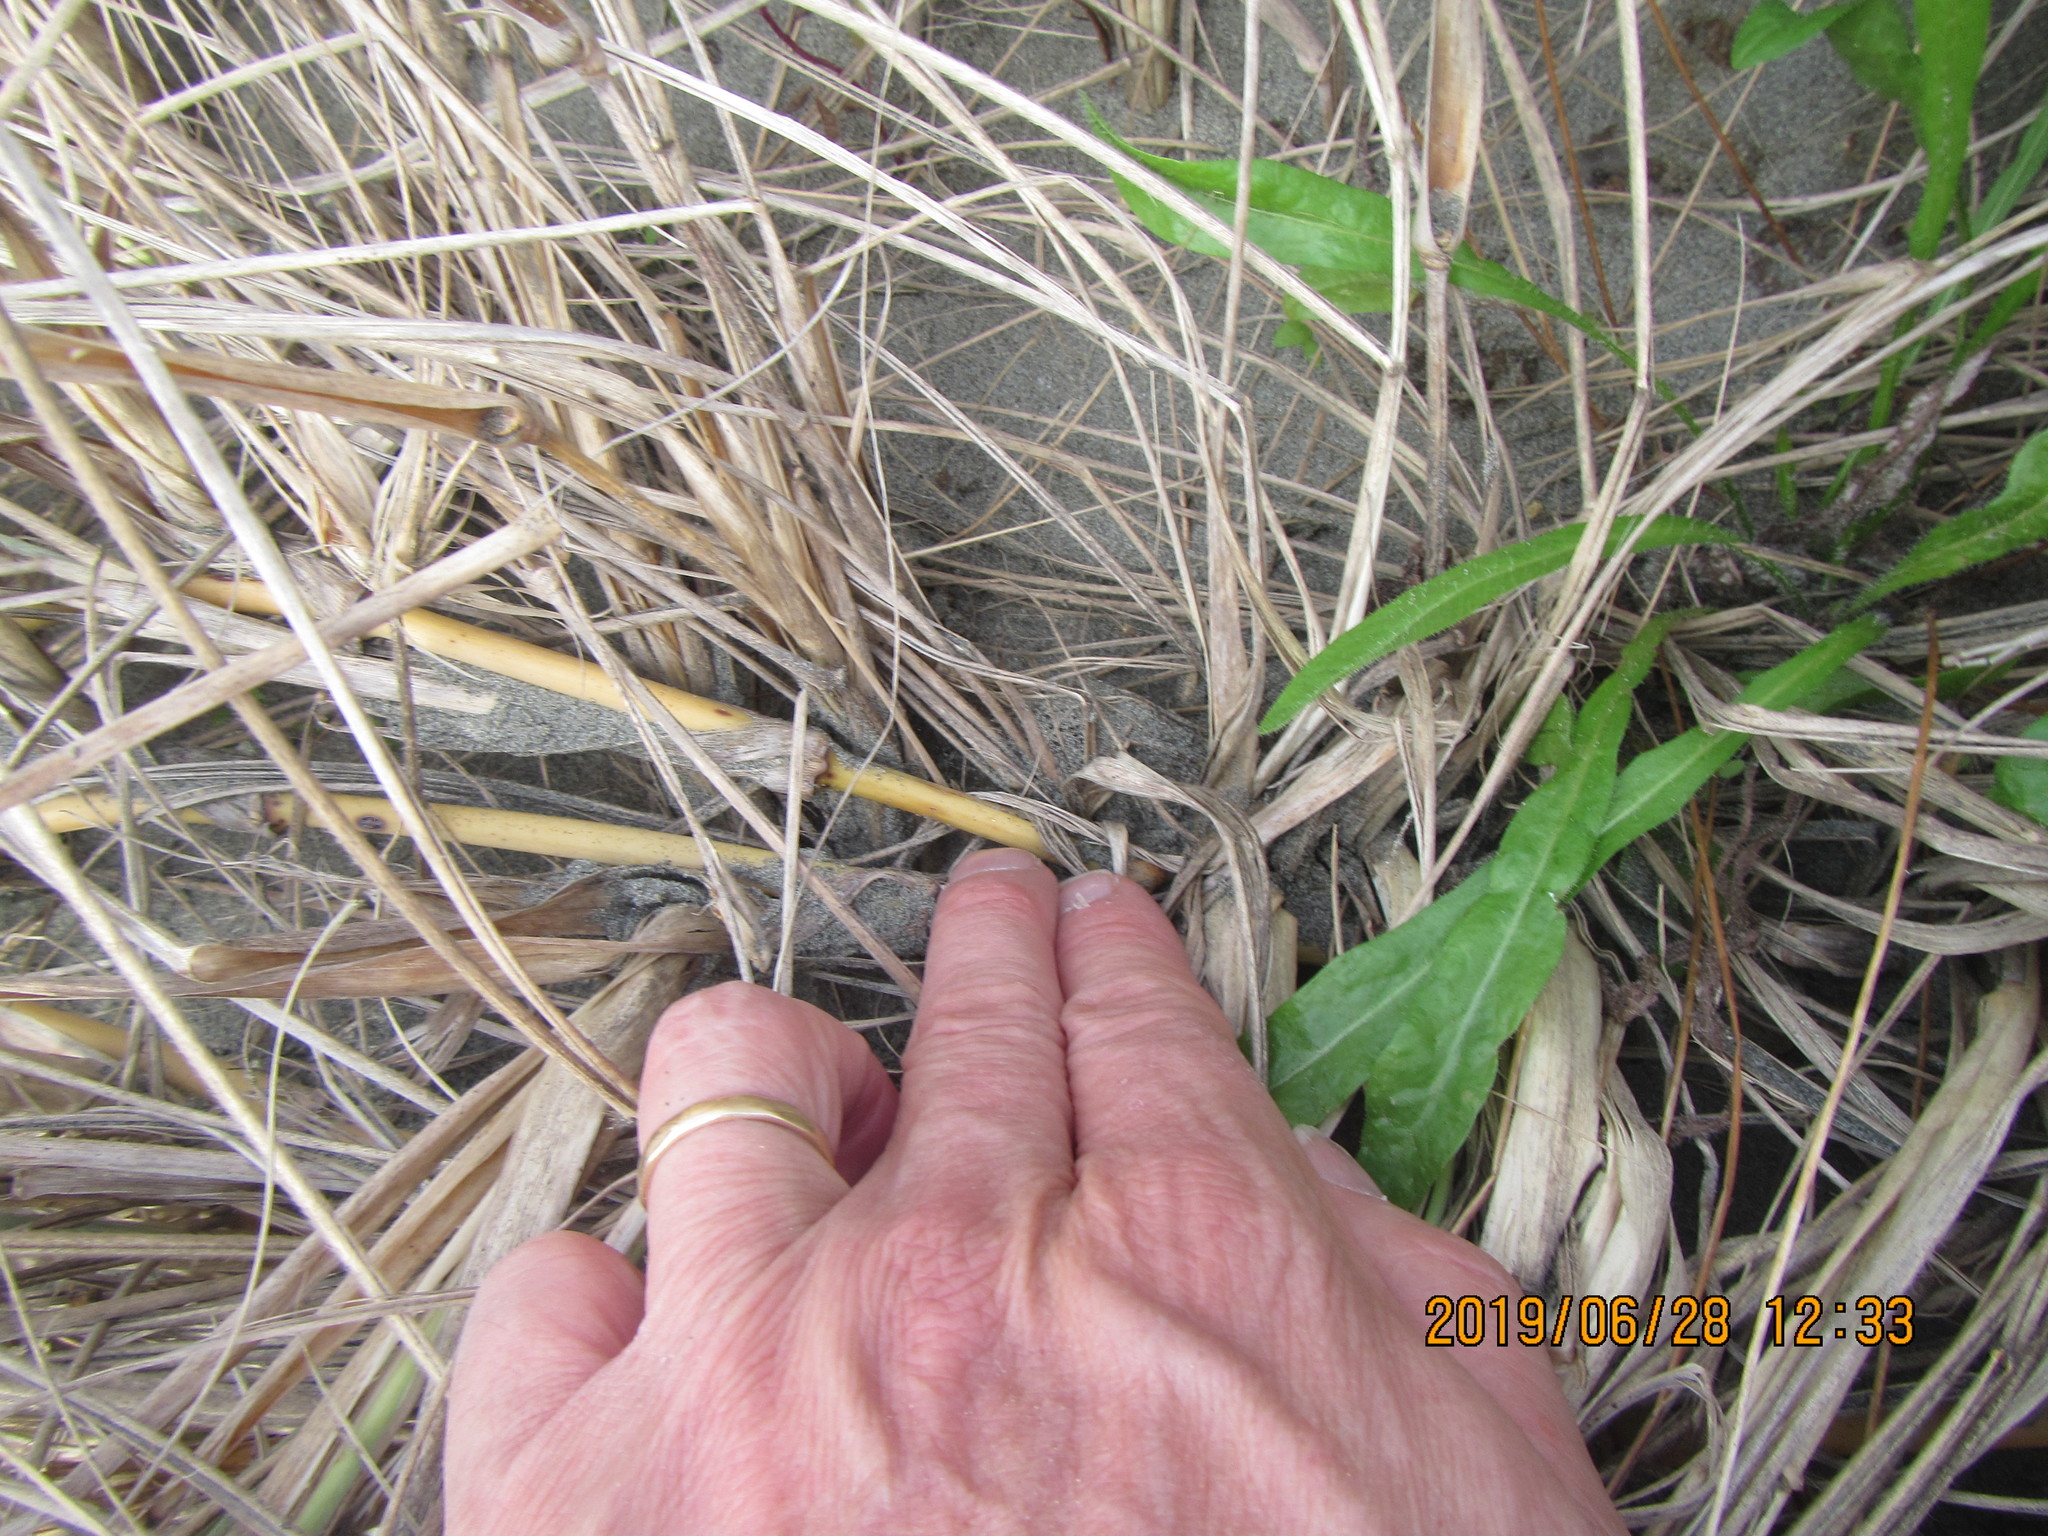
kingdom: Animalia
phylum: Arthropoda
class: Arachnida
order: Araneae
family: Theridiidae
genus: Steatoda
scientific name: Steatoda capensis
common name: Cobweb weaver
